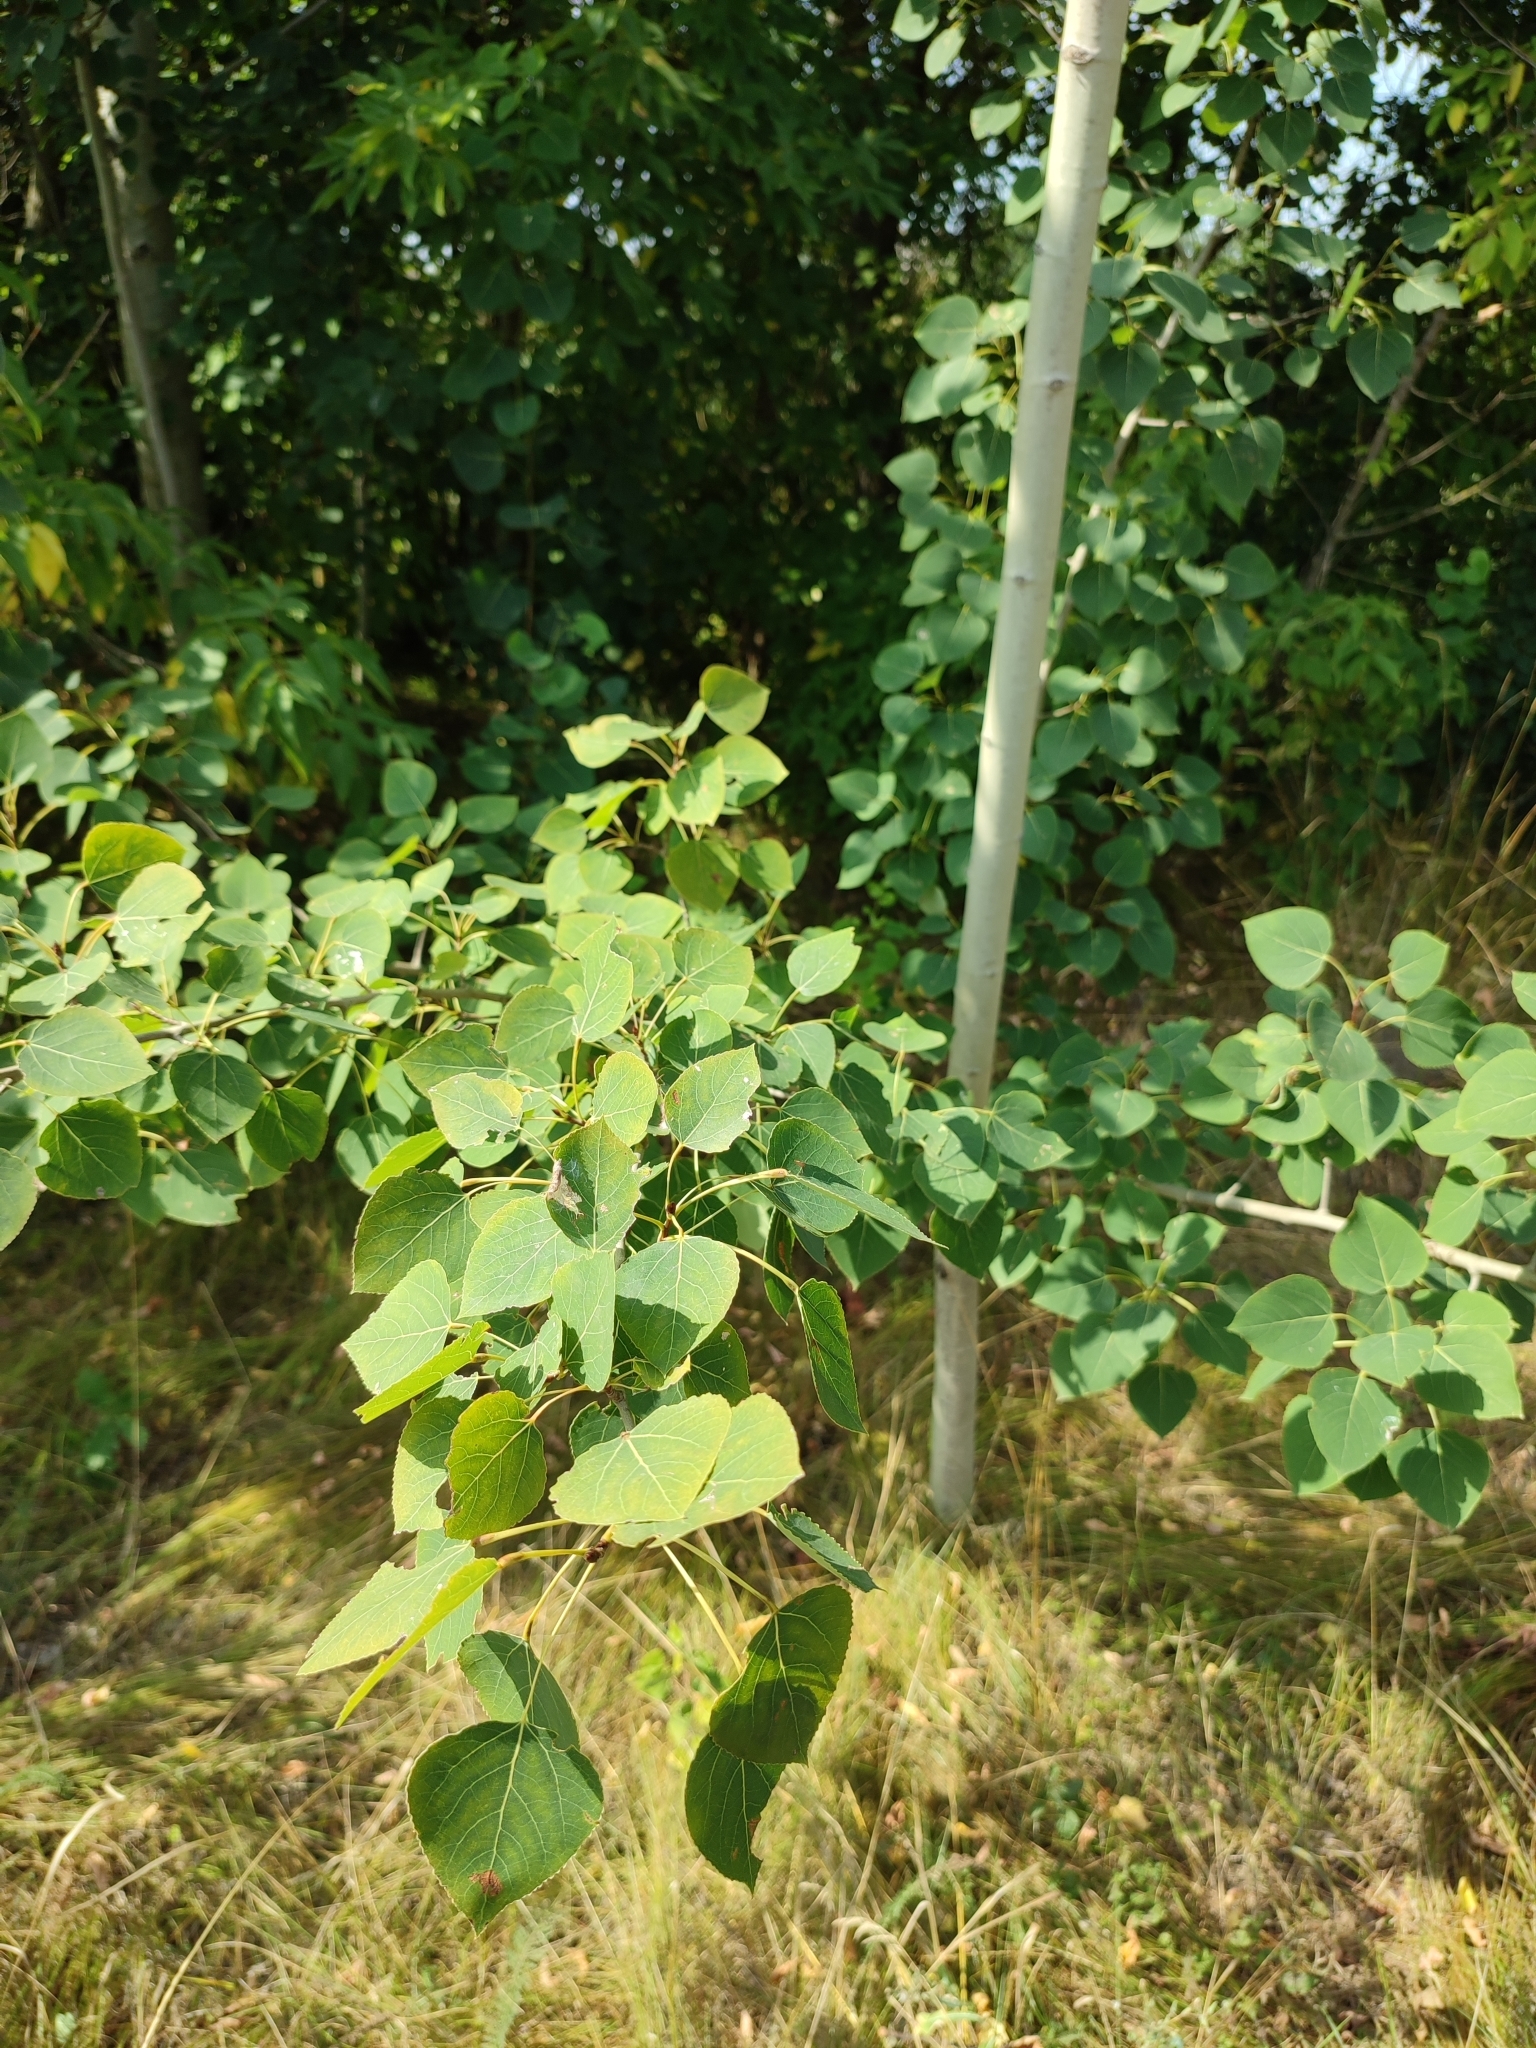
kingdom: Plantae
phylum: Tracheophyta
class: Magnoliopsida
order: Malpighiales
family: Salicaceae
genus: Populus
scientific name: Populus tremula
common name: European aspen
